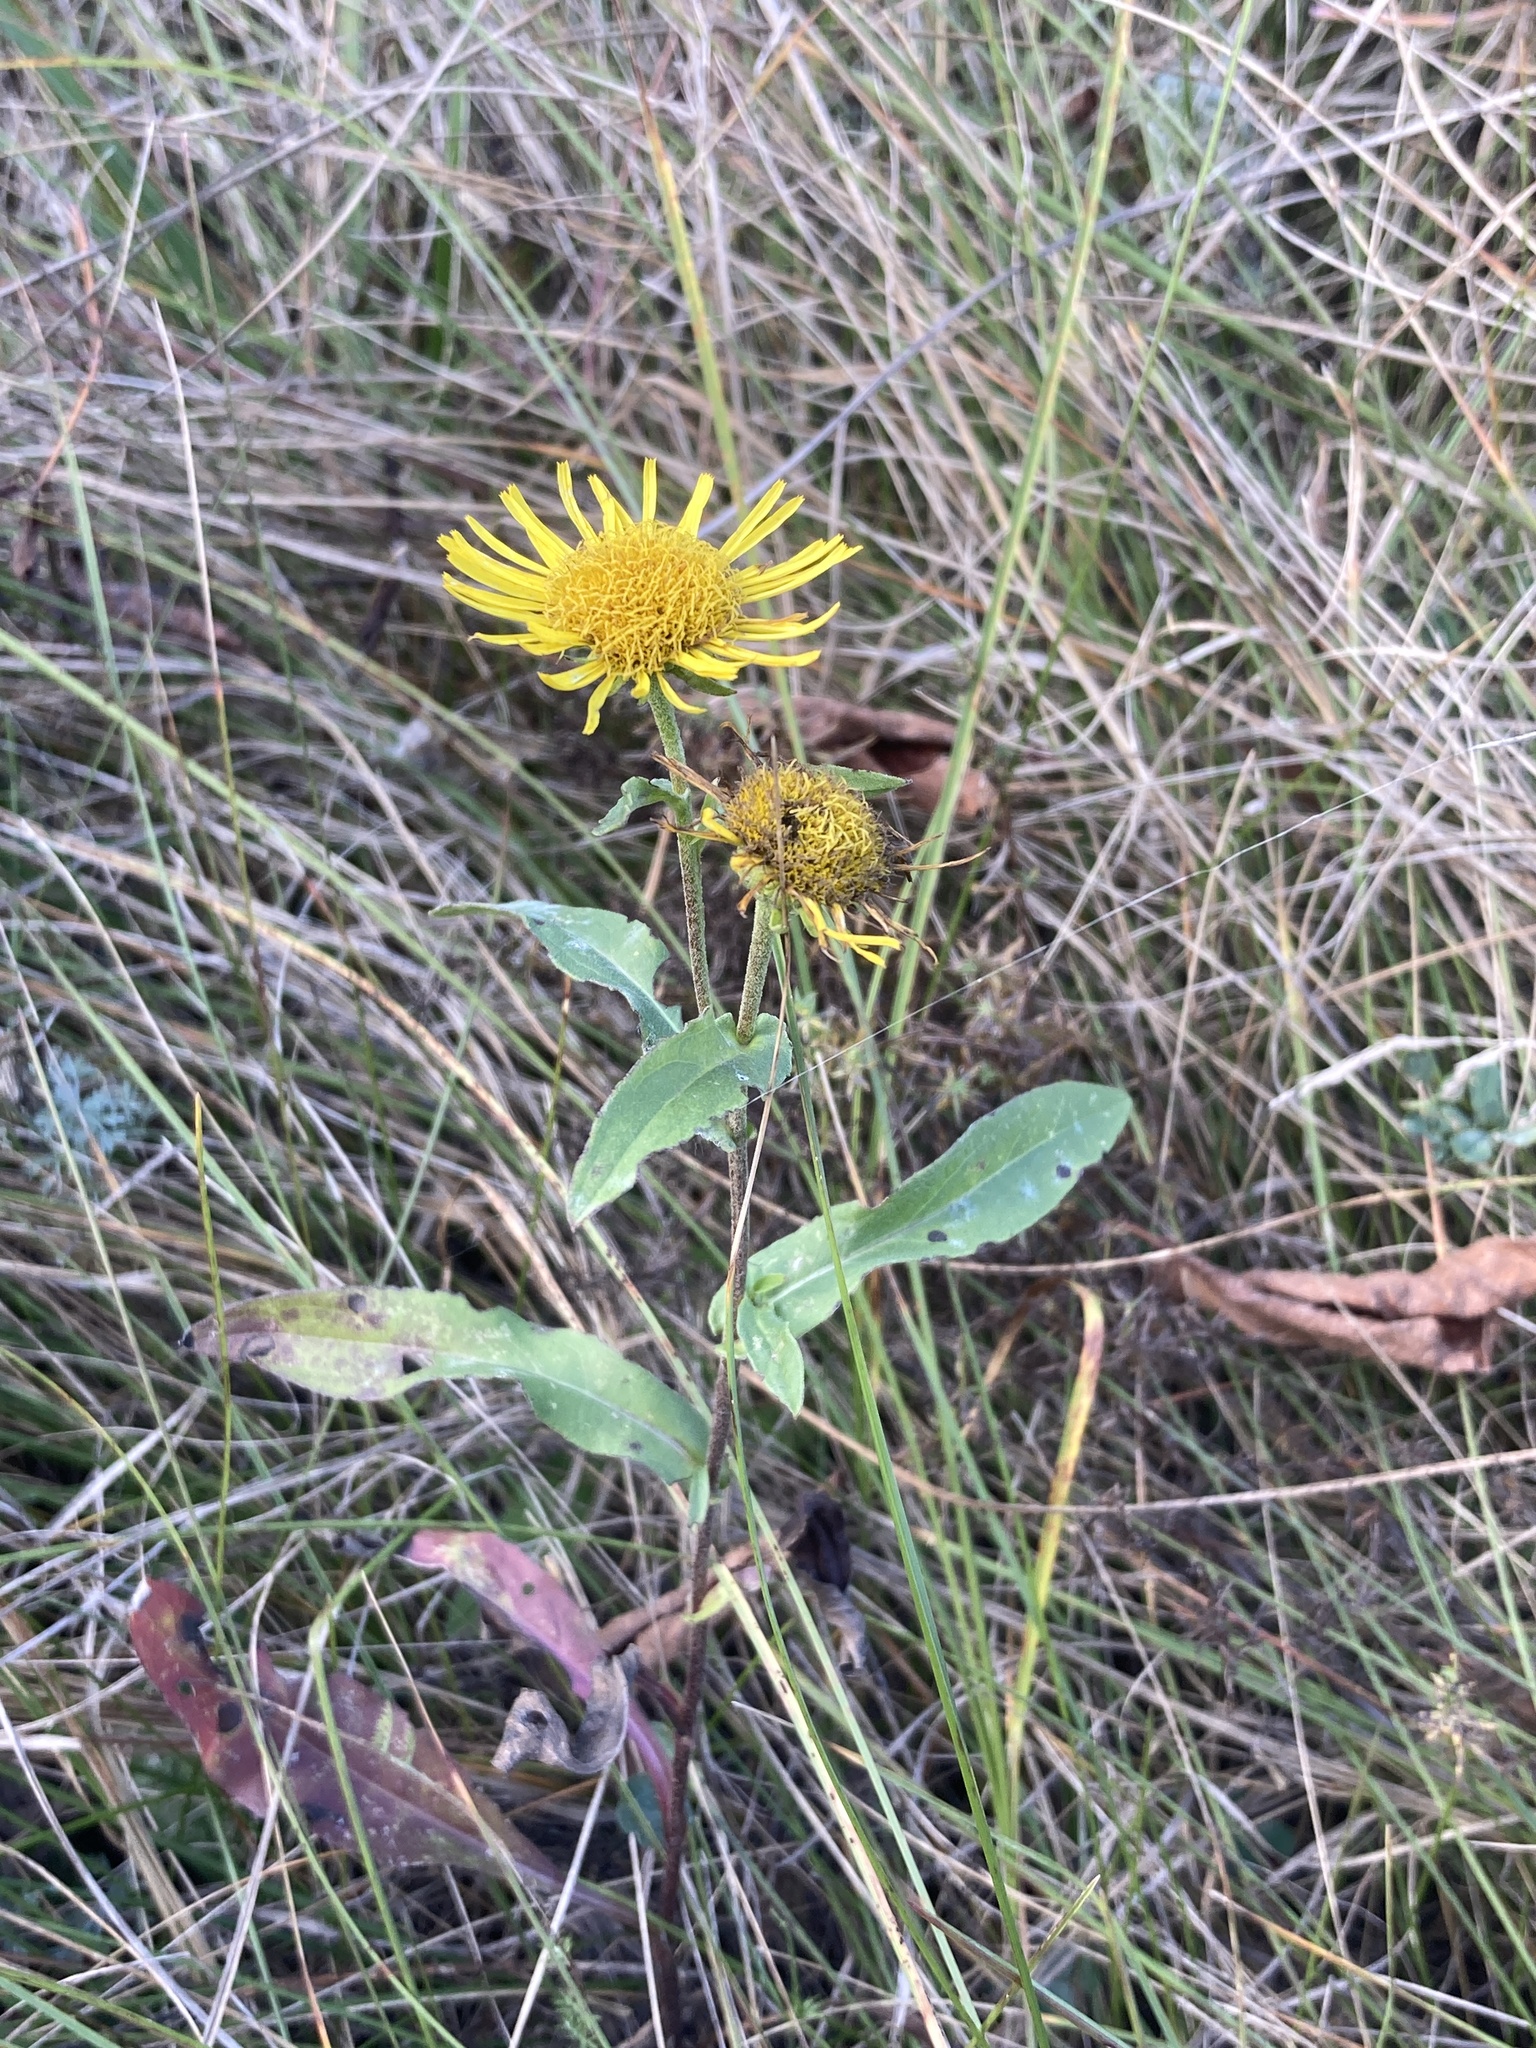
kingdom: Plantae
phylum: Tracheophyta
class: Magnoliopsida
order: Asterales
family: Asteraceae
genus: Pentanema
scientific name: Pentanema britannicum
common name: British elecampane
